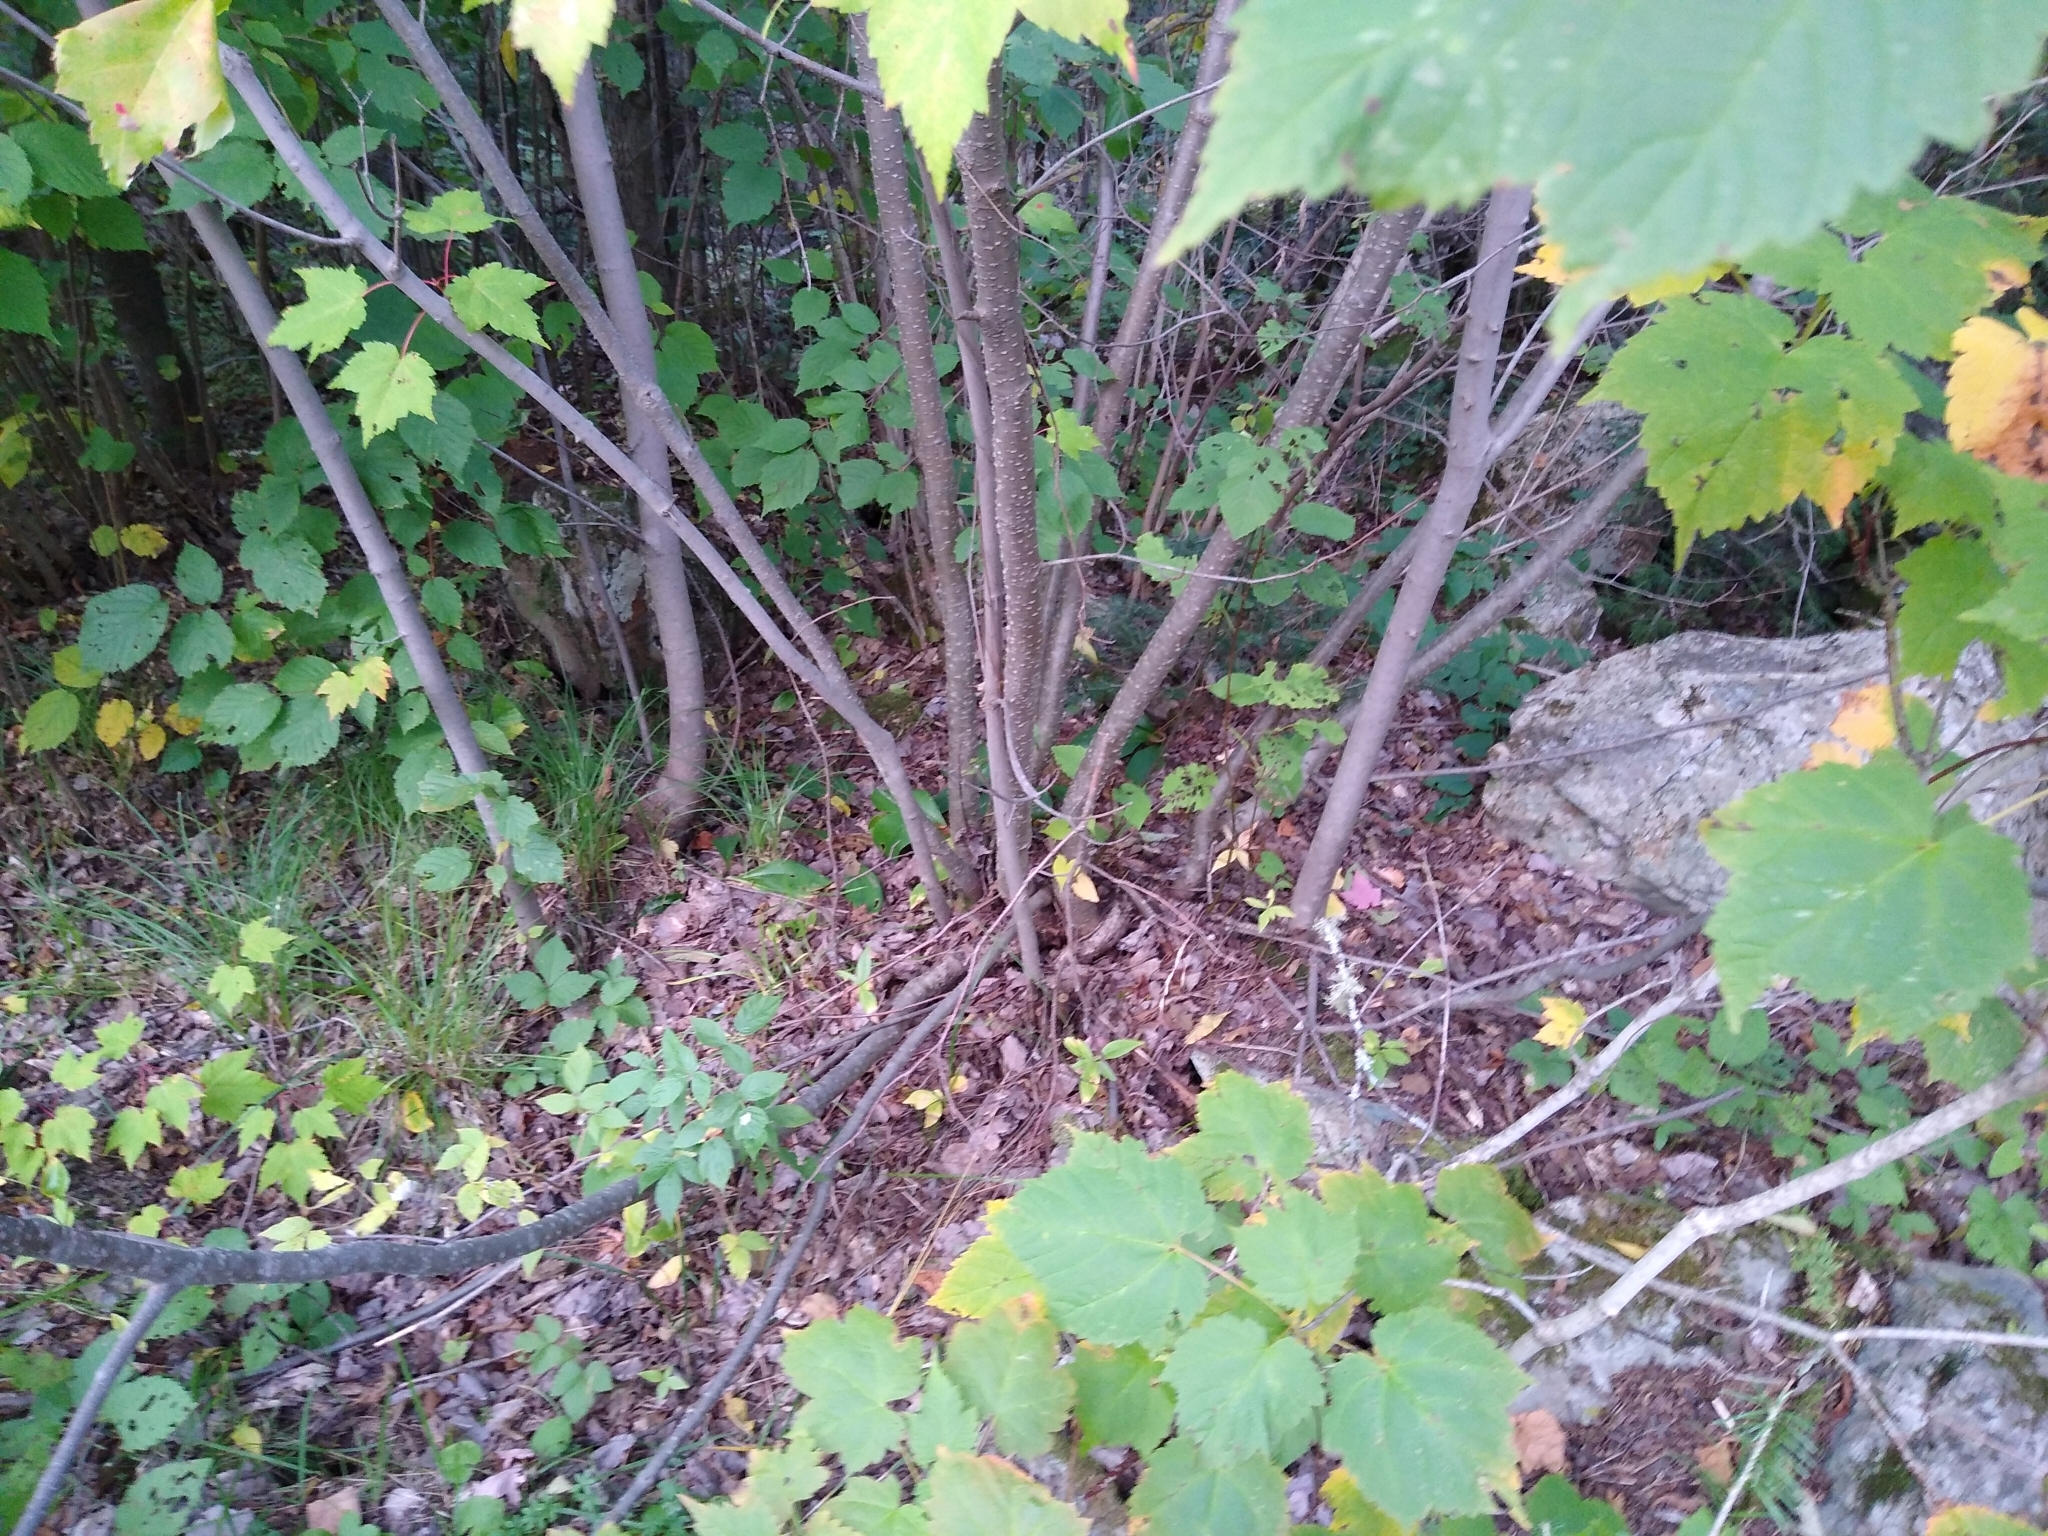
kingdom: Plantae
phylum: Tracheophyta
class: Magnoliopsida
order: Fagales
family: Betulaceae
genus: Alnus
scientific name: Alnus incana
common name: Grey alder
